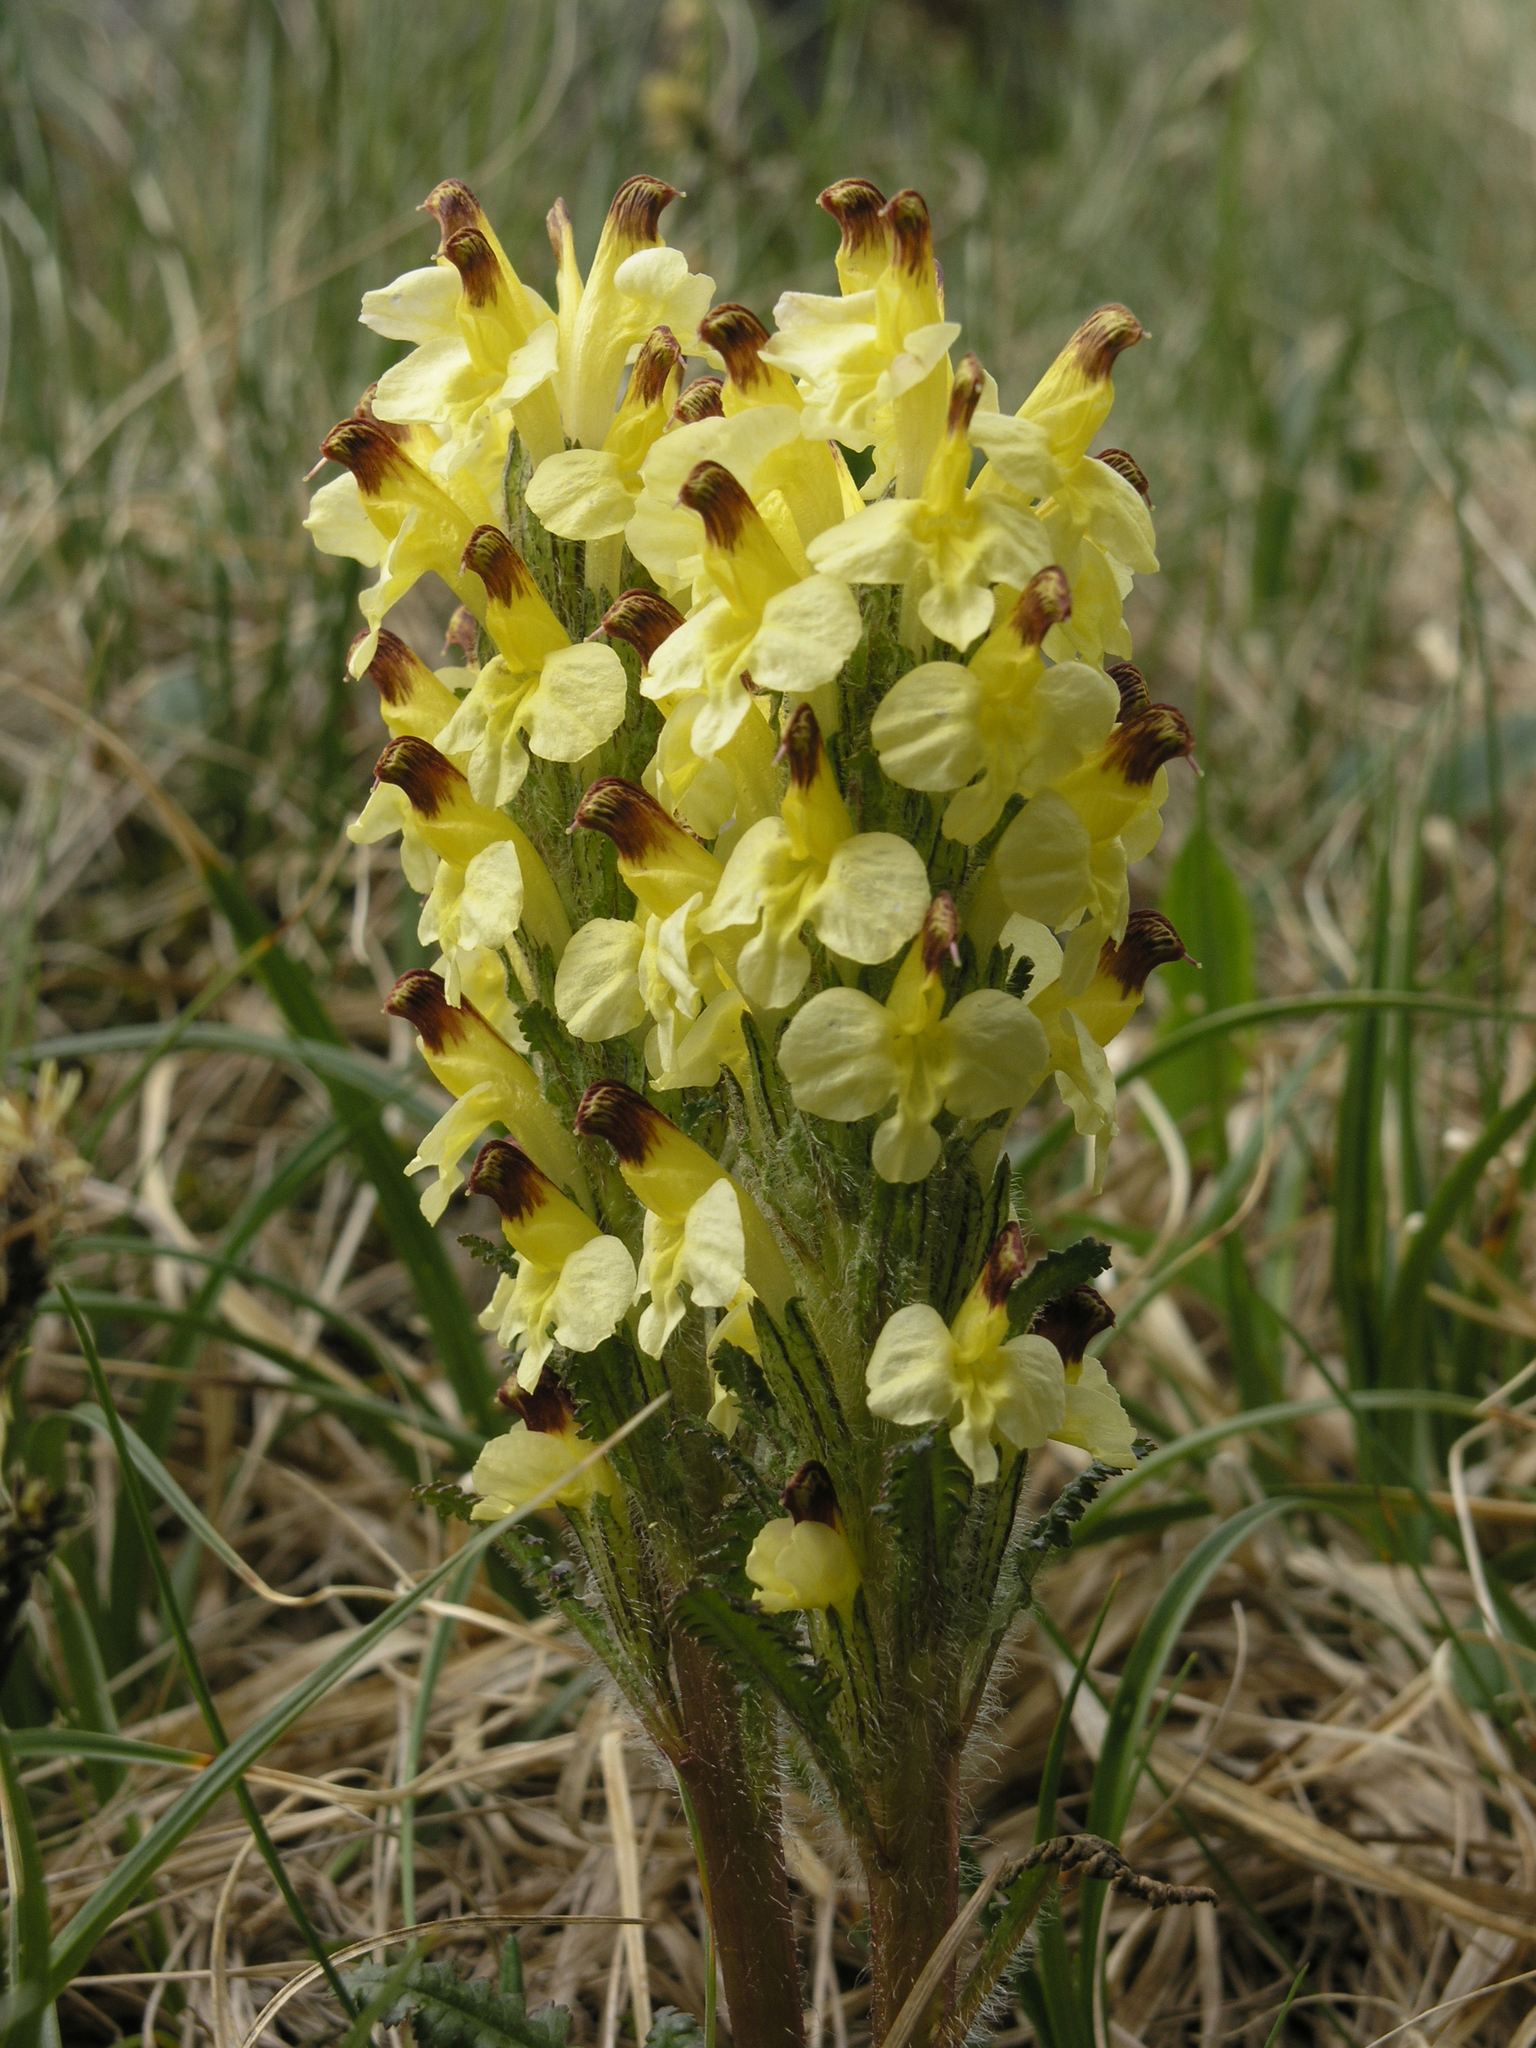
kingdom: Plantae
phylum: Tracheophyta
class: Magnoliopsida
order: Lamiales
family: Orobanchaceae
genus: Pedicularis
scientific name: Pedicularis oederi
